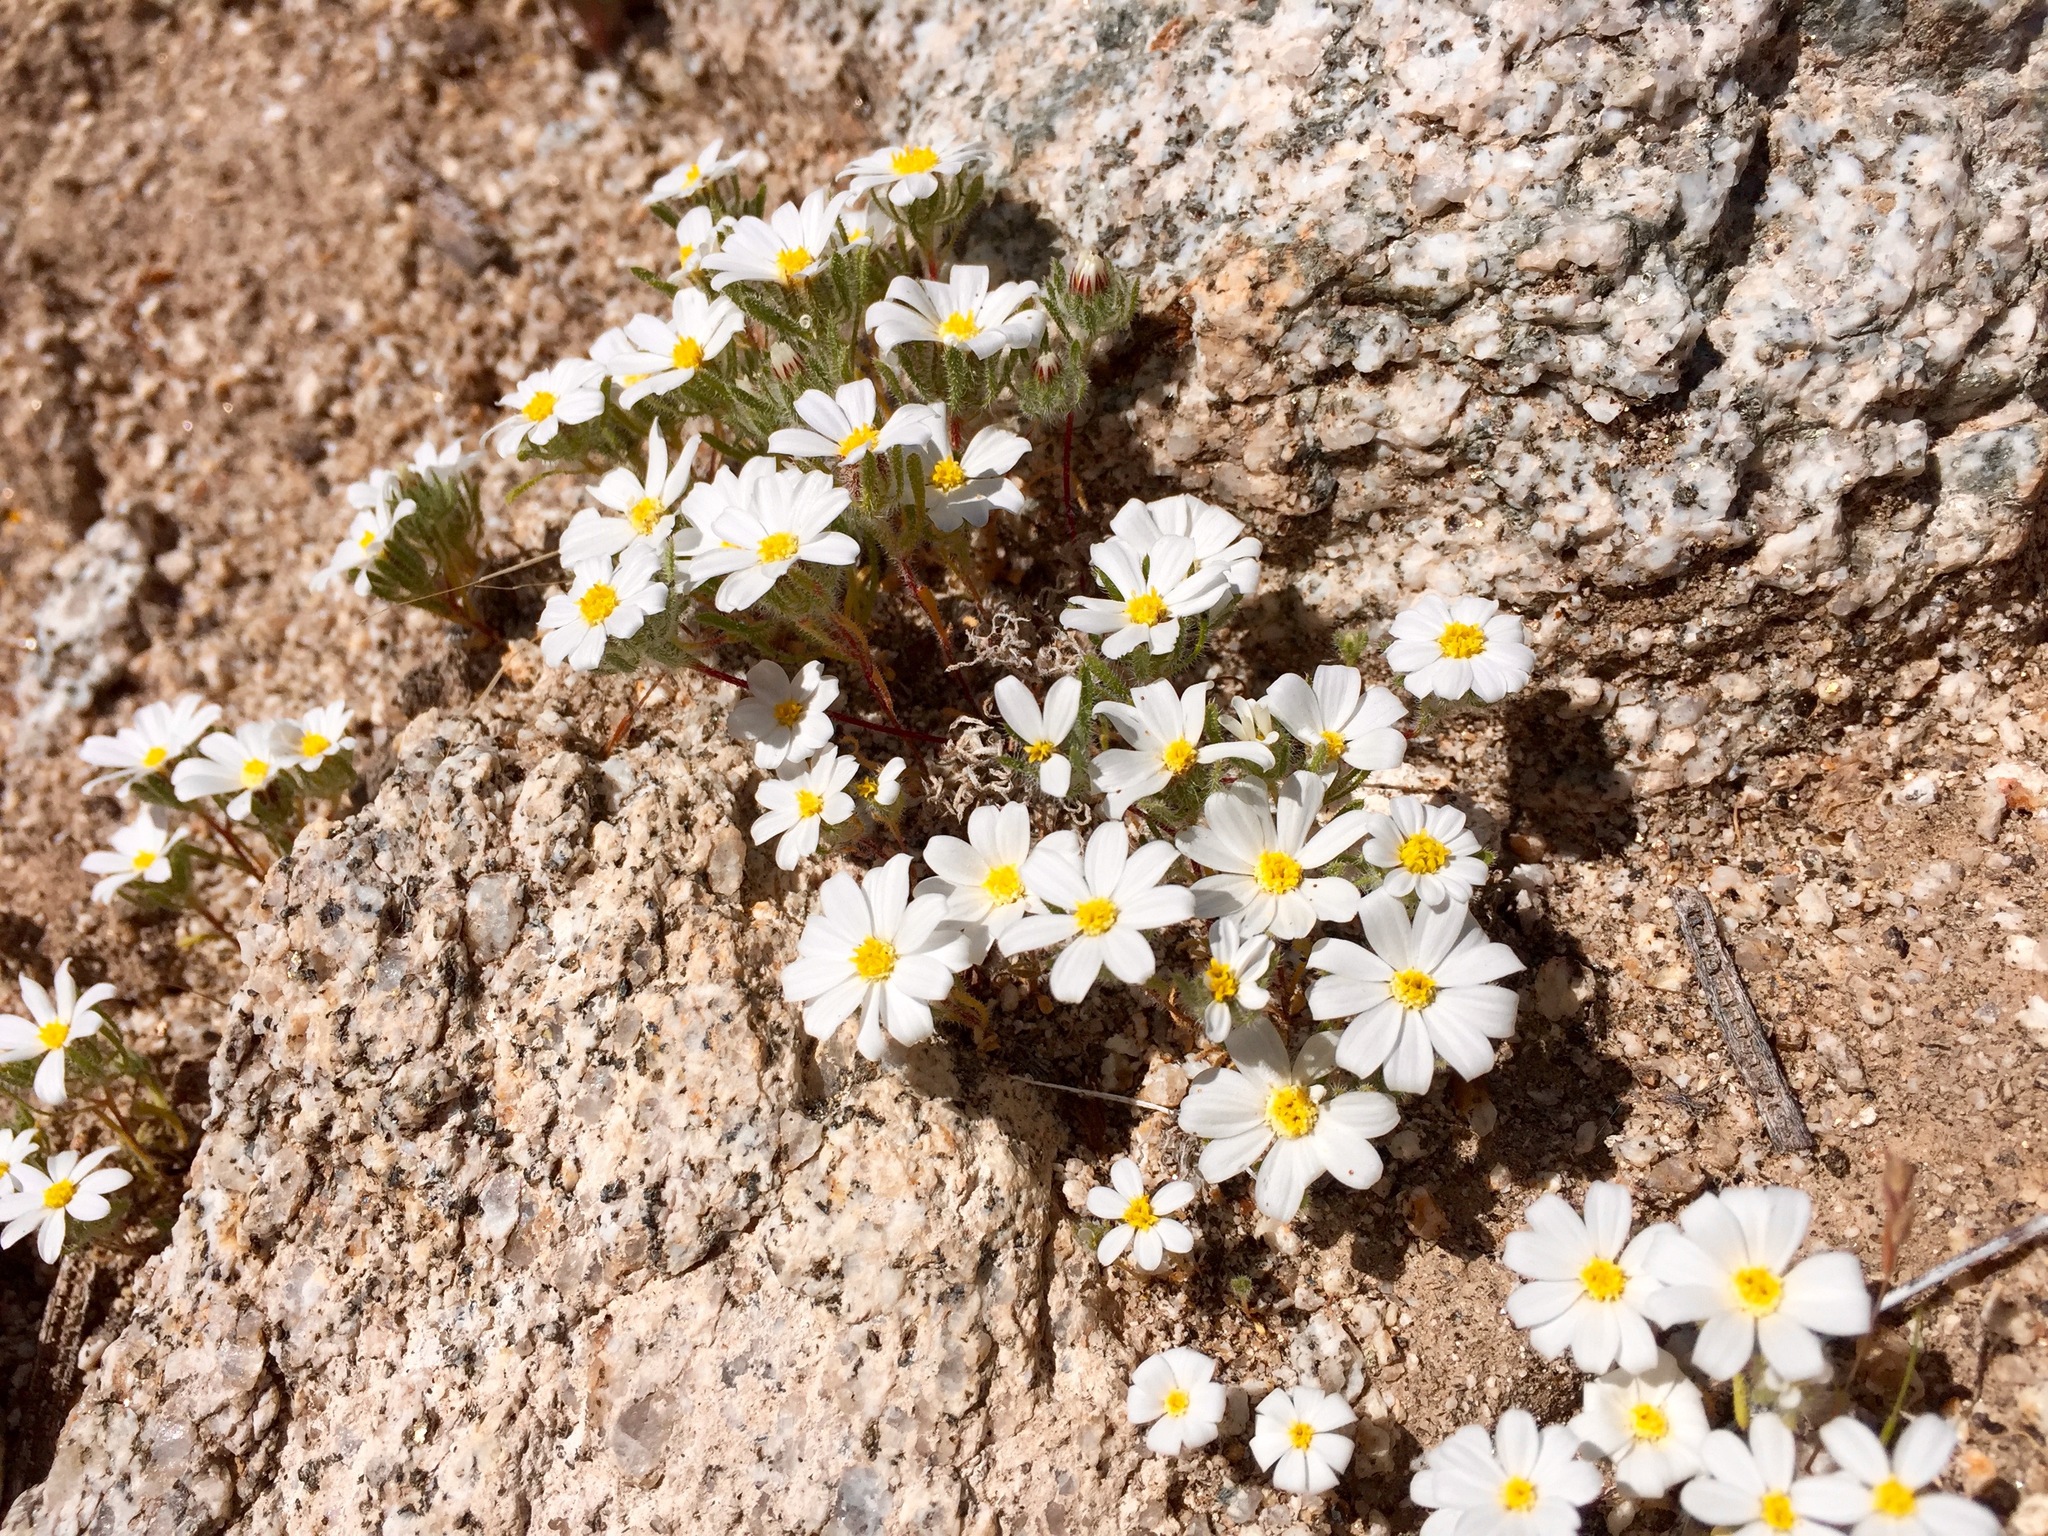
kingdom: Plantae
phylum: Tracheophyta
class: Magnoliopsida
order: Asterales
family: Asteraceae
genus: Monoptilon
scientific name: Monoptilon bellioides
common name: Bristly desertstar
